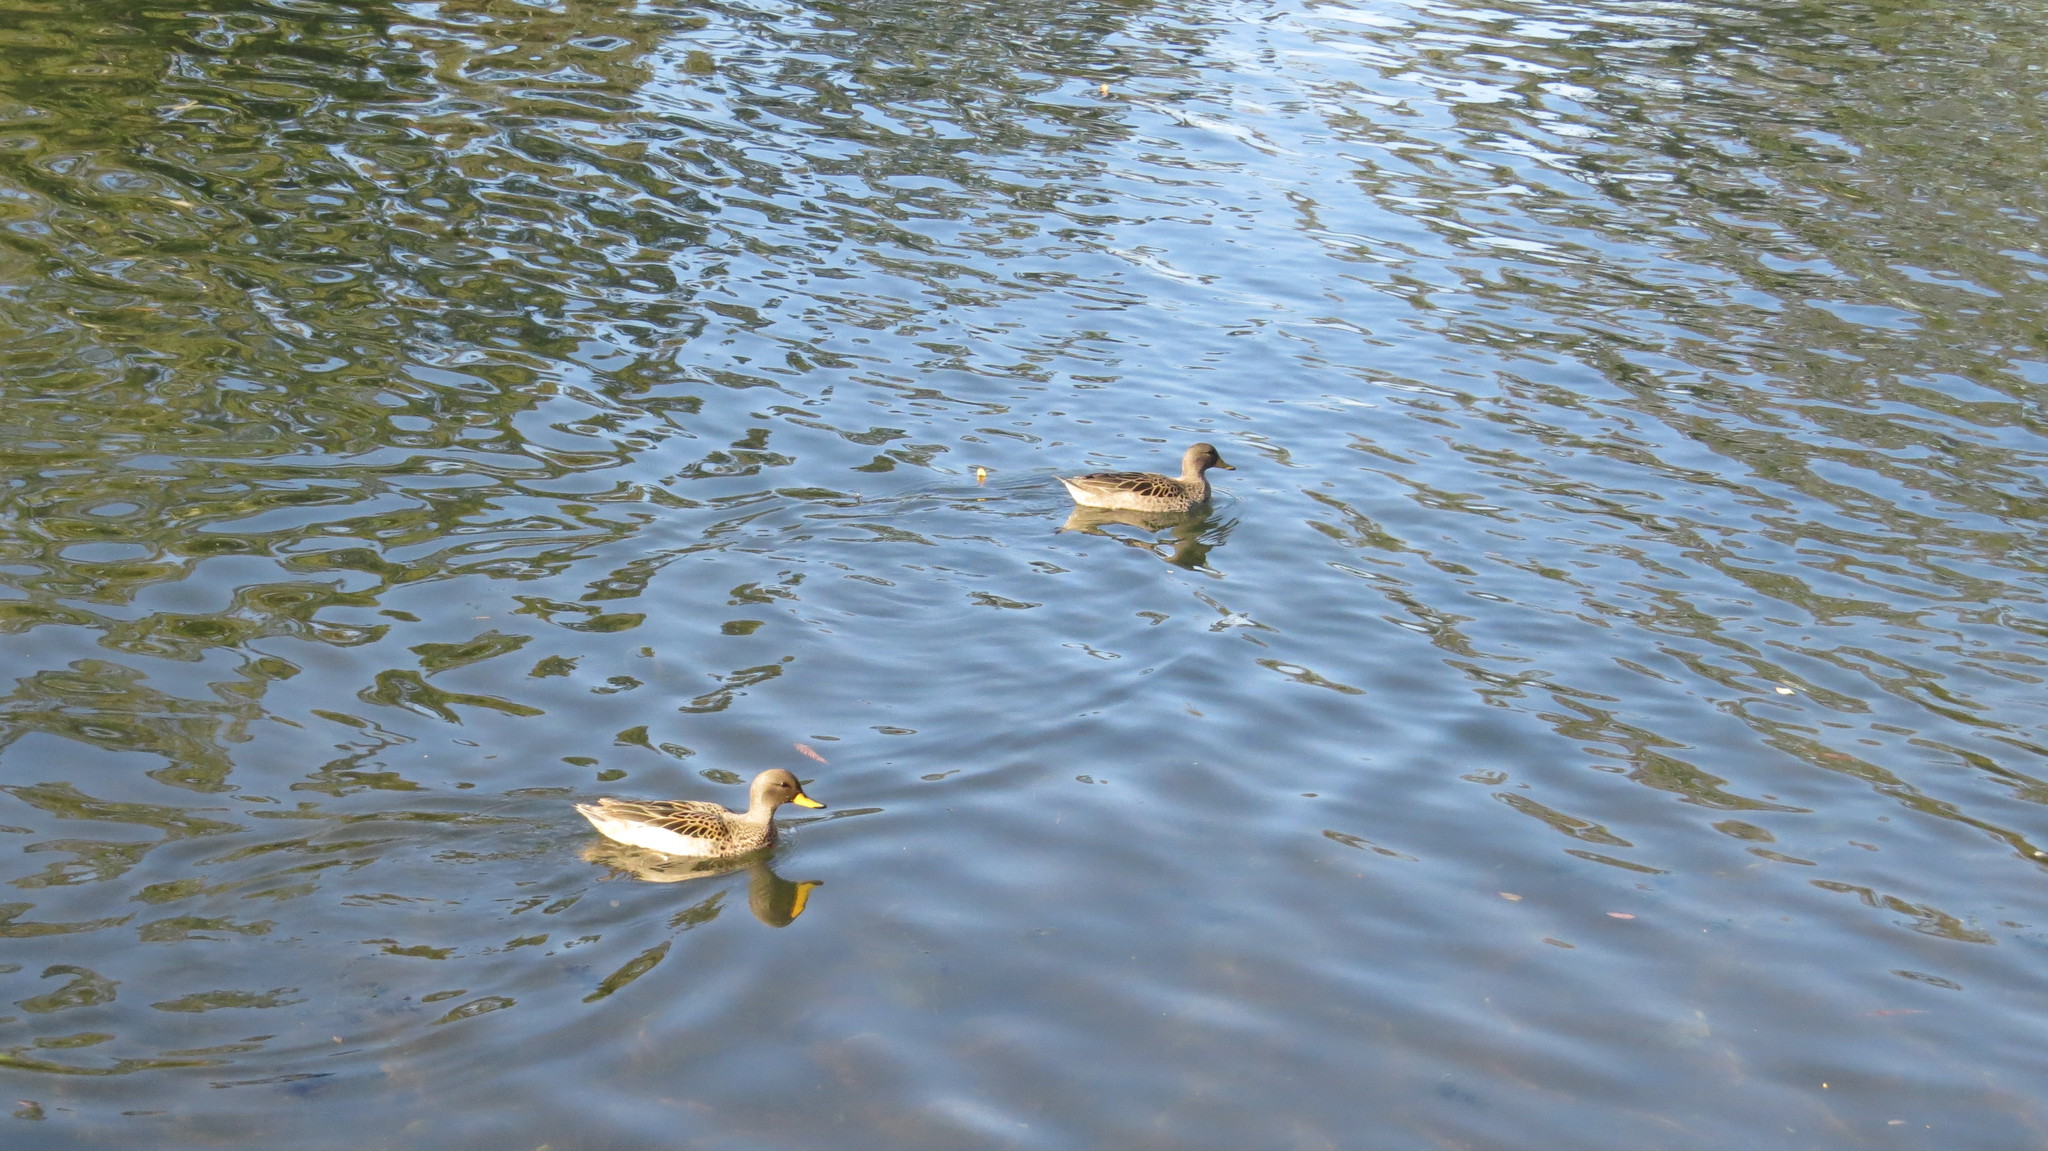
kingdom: Animalia
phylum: Chordata
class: Aves
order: Anseriformes
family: Anatidae
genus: Anas
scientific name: Anas flavirostris
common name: Yellow-billed teal
